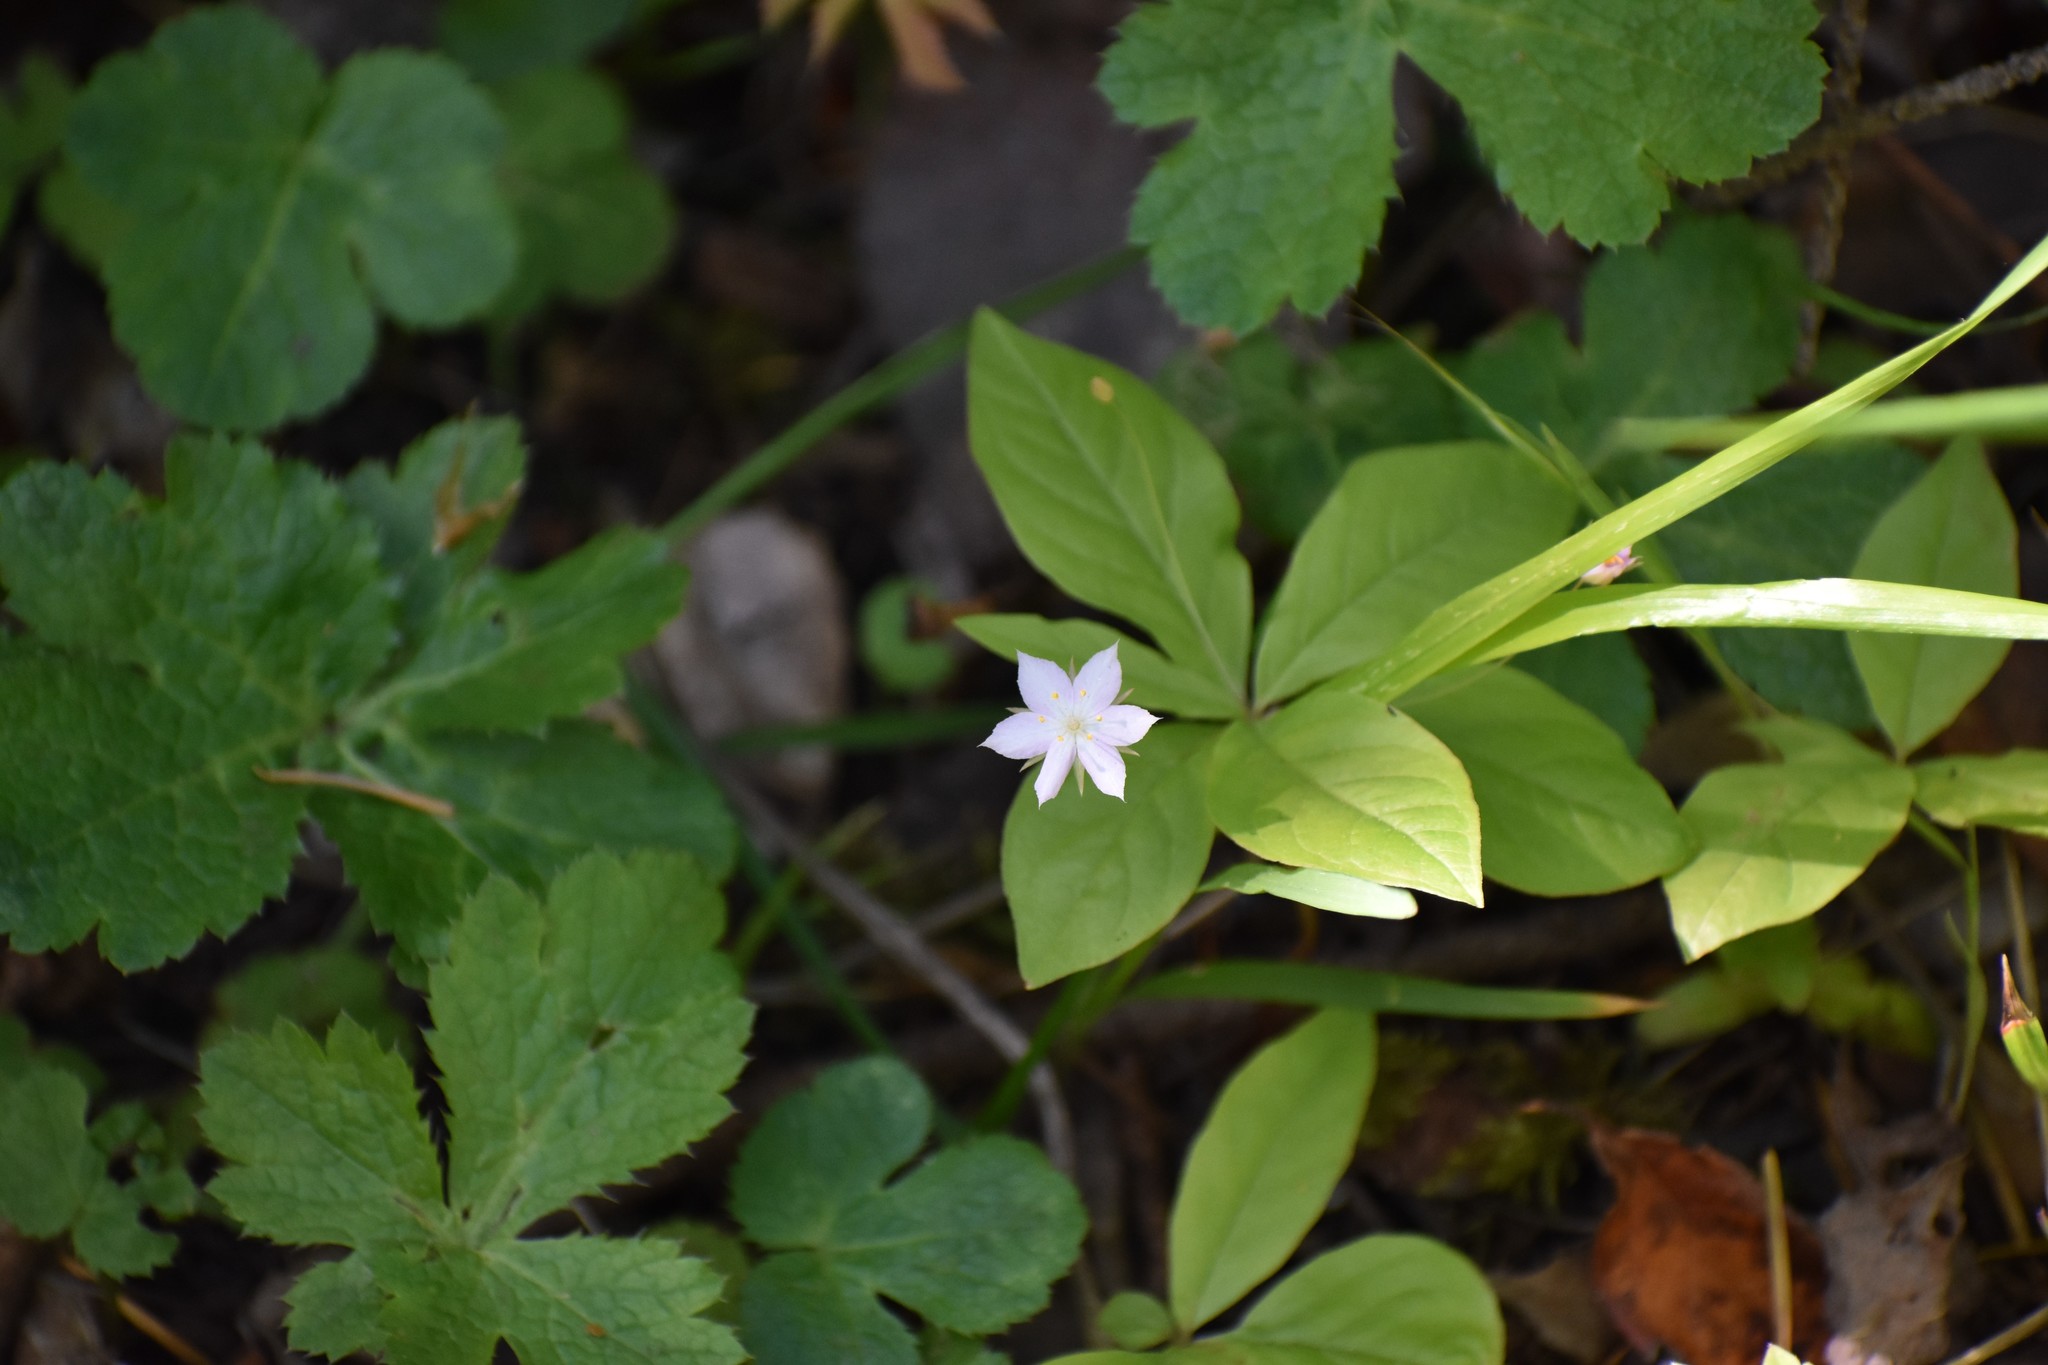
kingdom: Plantae
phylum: Tracheophyta
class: Magnoliopsida
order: Ericales
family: Primulaceae
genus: Lysimachia
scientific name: Lysimachia latifolia
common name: Pacific starflower
